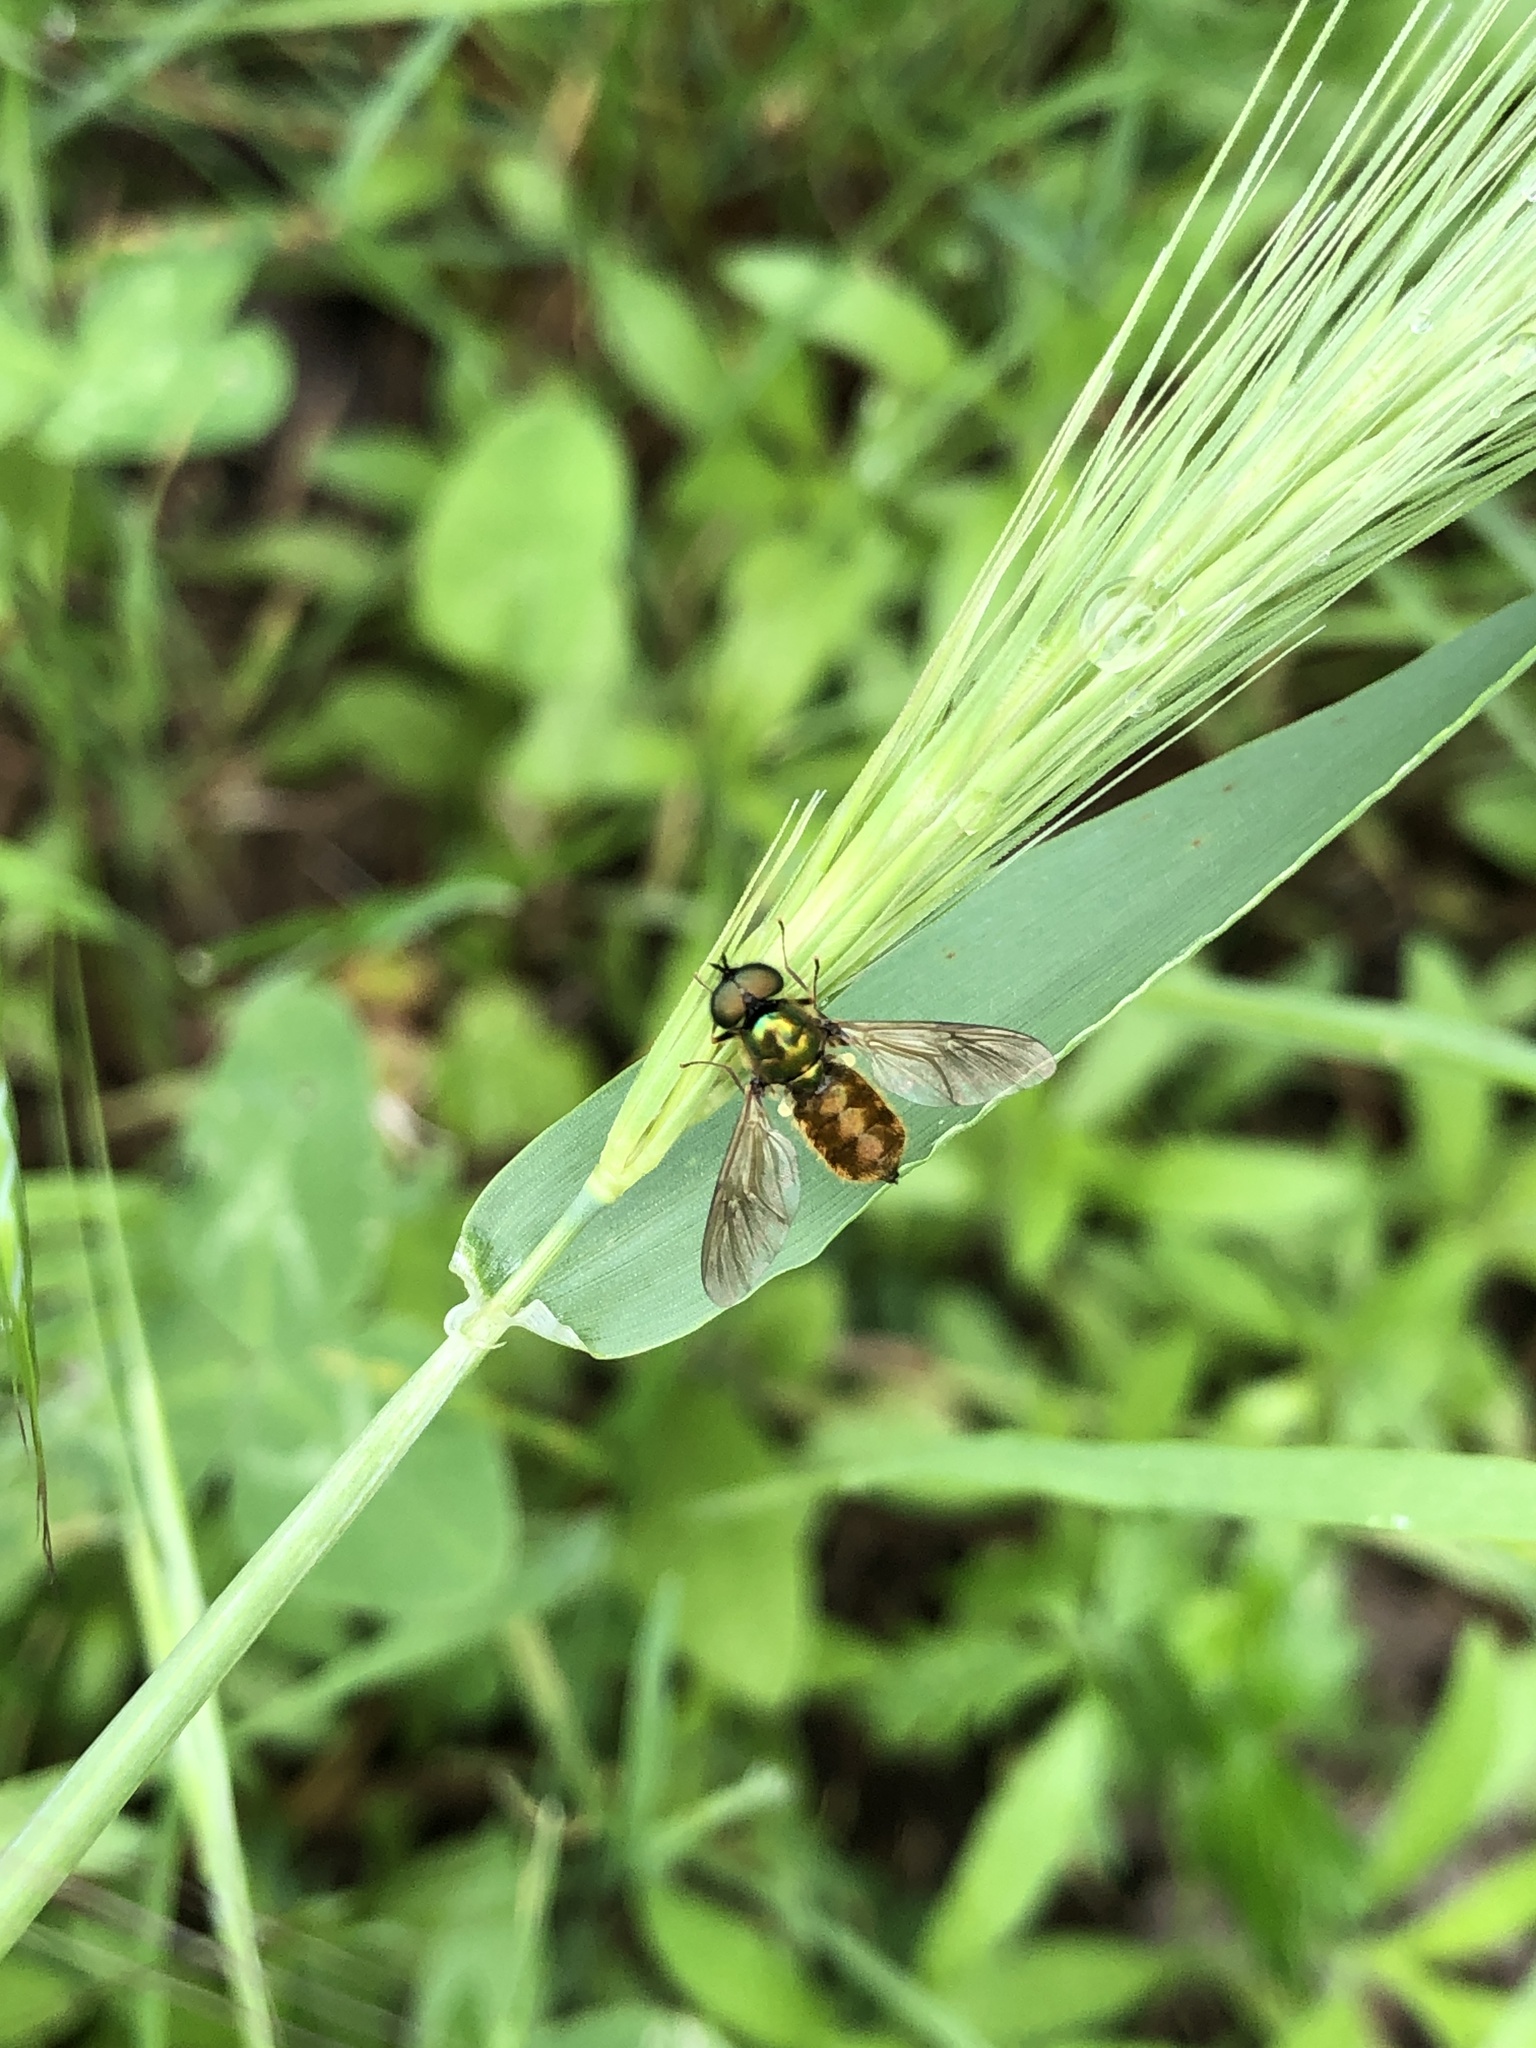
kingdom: Animalia
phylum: Arthropoda
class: Insecta
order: Diptera
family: Stratiomyidae
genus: Chloromyia
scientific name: Chloromyia formosa
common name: Soldier fly
